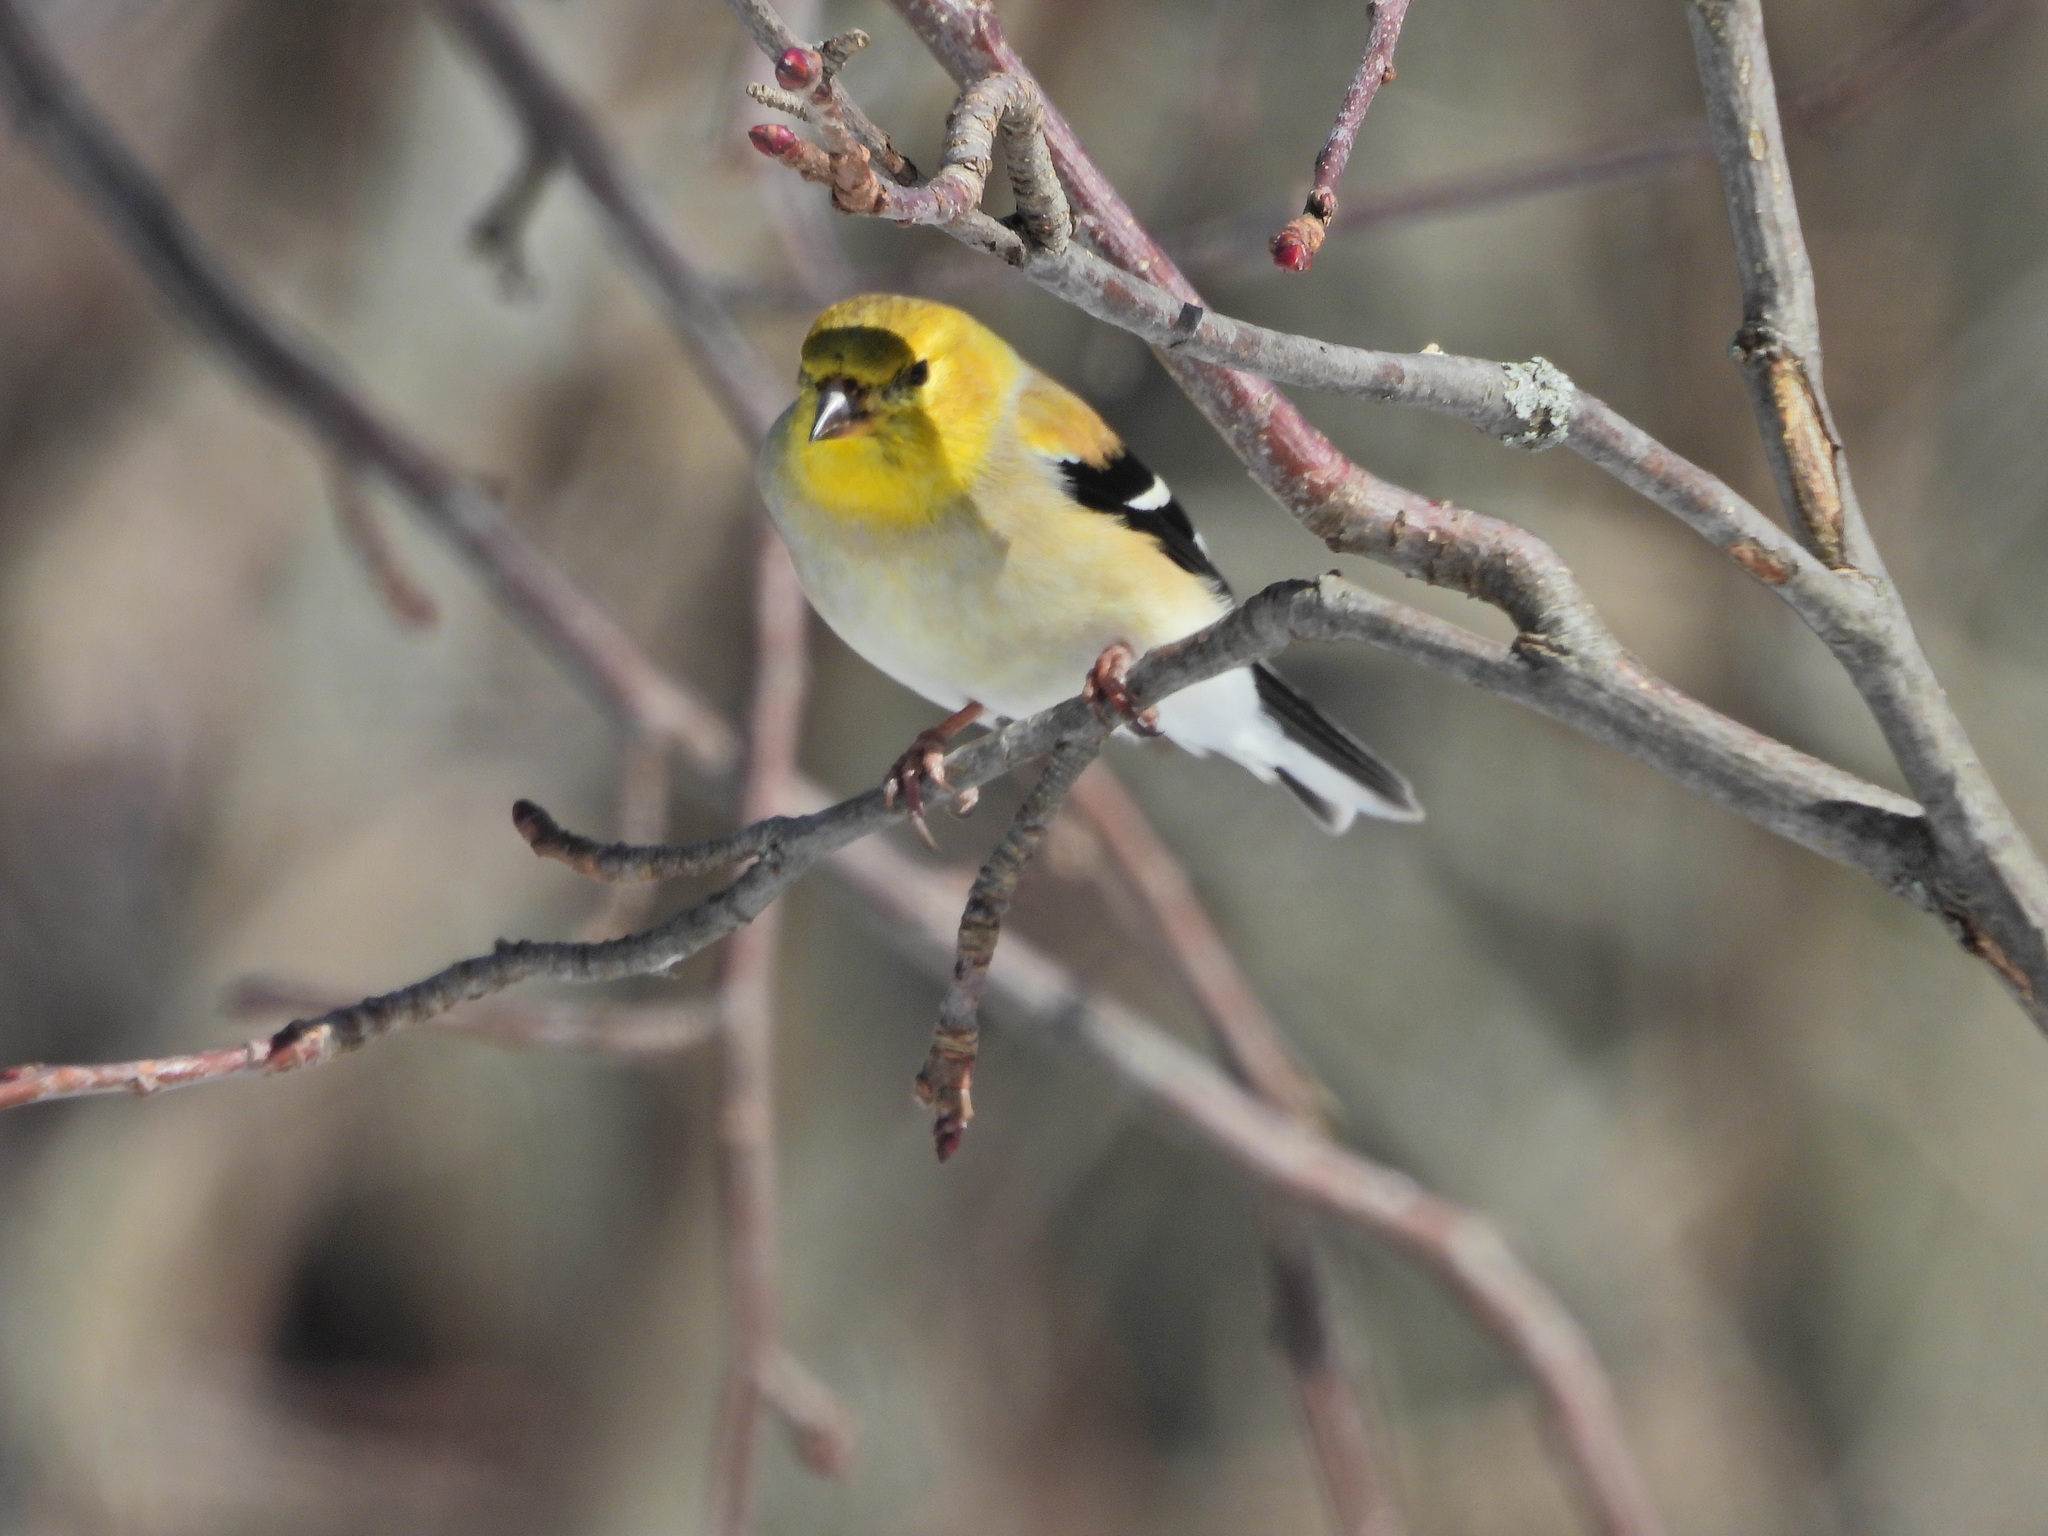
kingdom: Animalia
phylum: Chordata
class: Aves
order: Passeriformes
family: Fringillidae
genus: Spinus
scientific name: Spinus tristis
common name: American goldfinch
